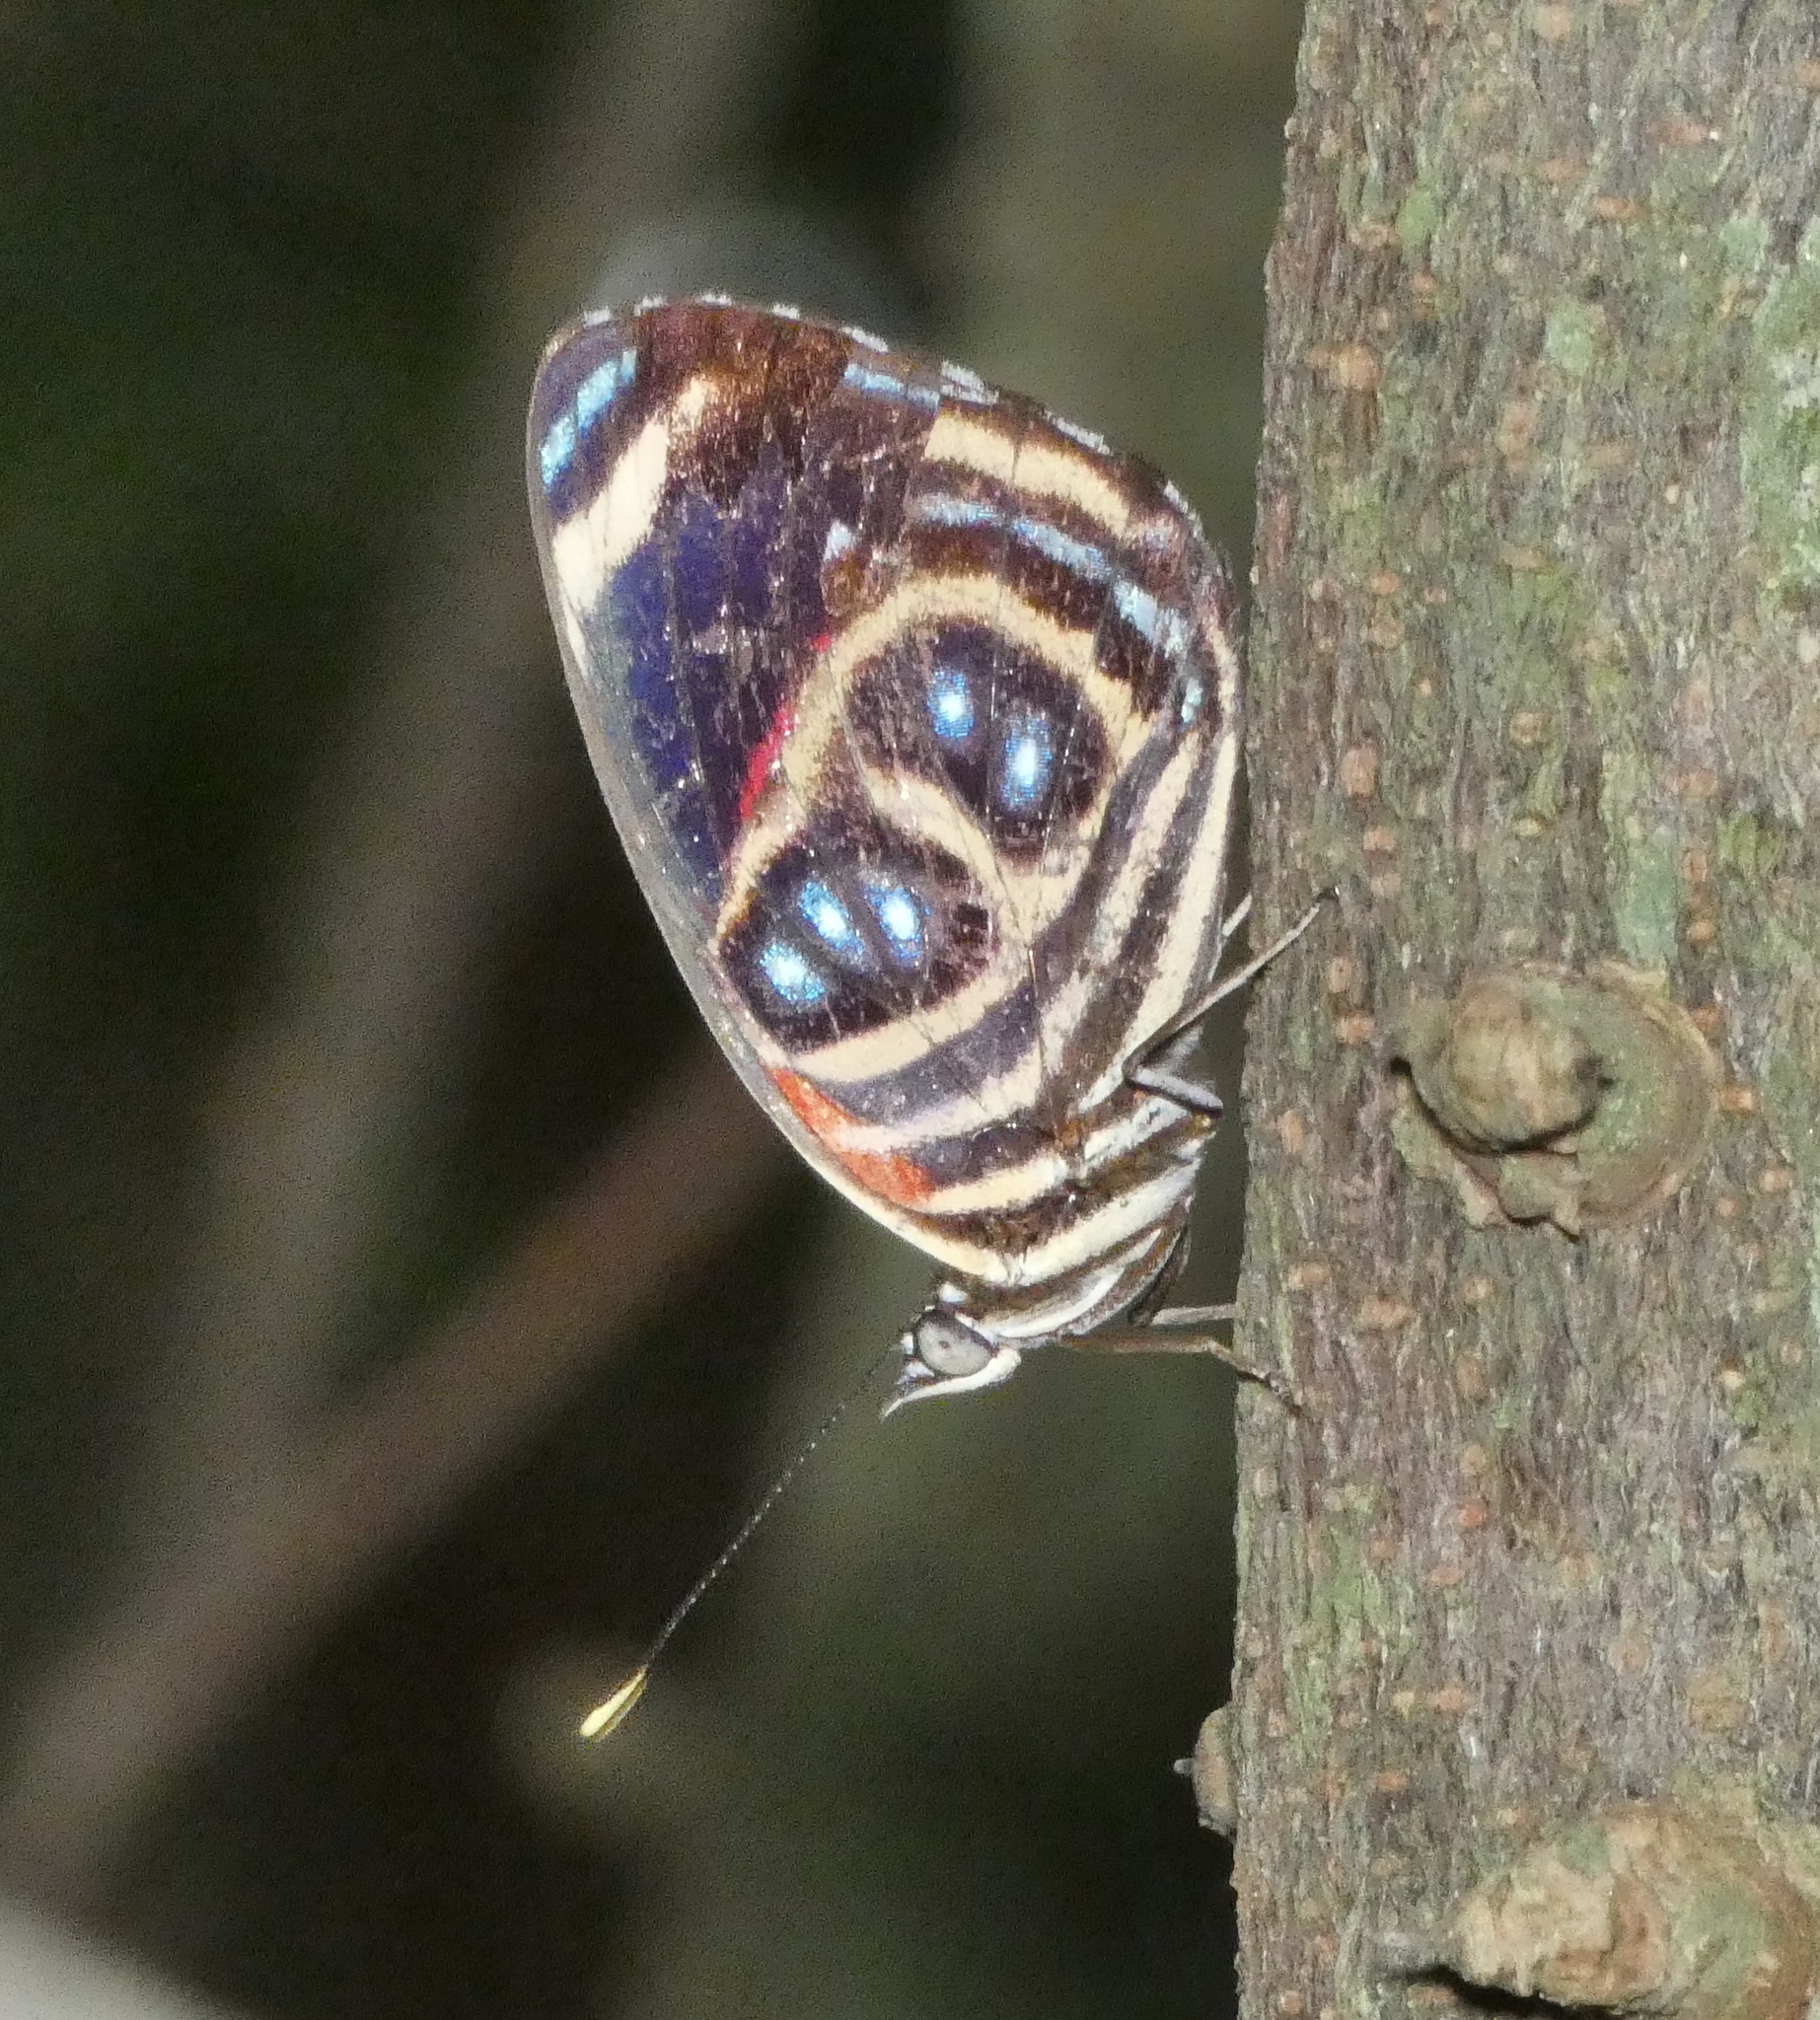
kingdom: Animalia
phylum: Arthropoda
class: Insecta
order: Lepidoptera
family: Nymphalidae
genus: Catagramma
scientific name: Catagramma pygas
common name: Godart's numberwing
